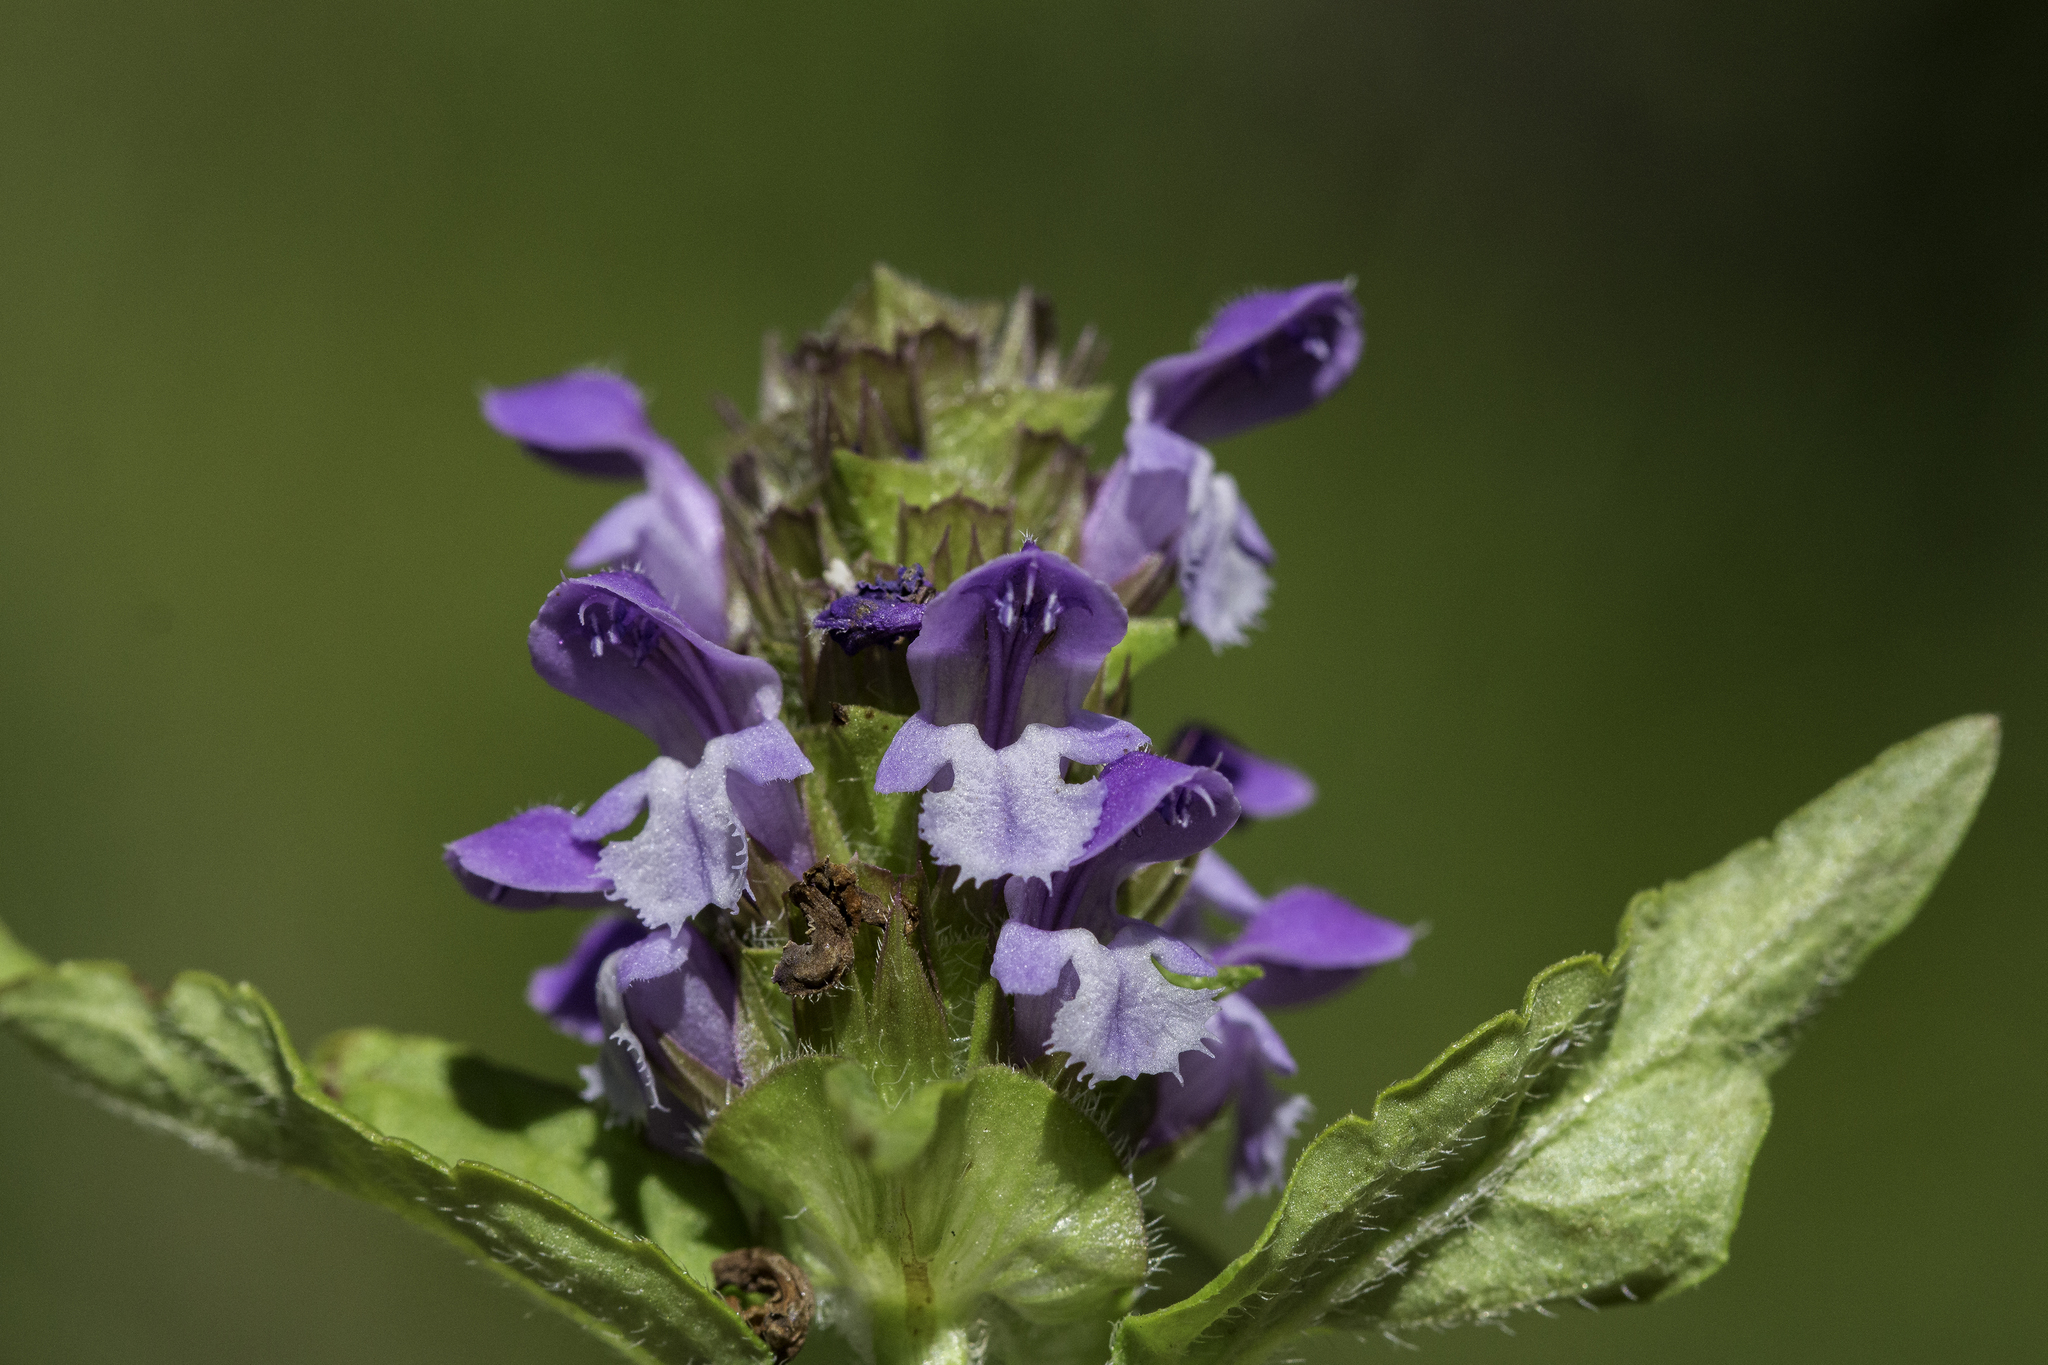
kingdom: Plantae
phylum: Tracheophyta
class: Magnoliopsida
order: Lamiales
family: Lamiaceae
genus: Prunella
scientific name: Prunella vulgaris
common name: Heal-all
